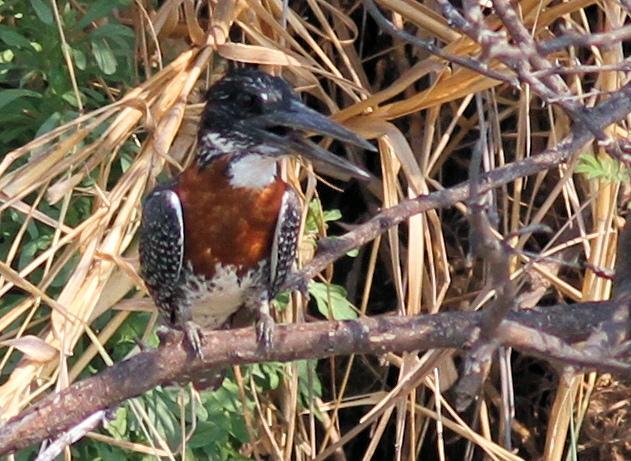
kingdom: Animalia
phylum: Chordata
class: Aves
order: Coraciiformes
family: Alcedinidae
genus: Megaceryle
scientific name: Megaceryle maxima
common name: Giant kingfisher
